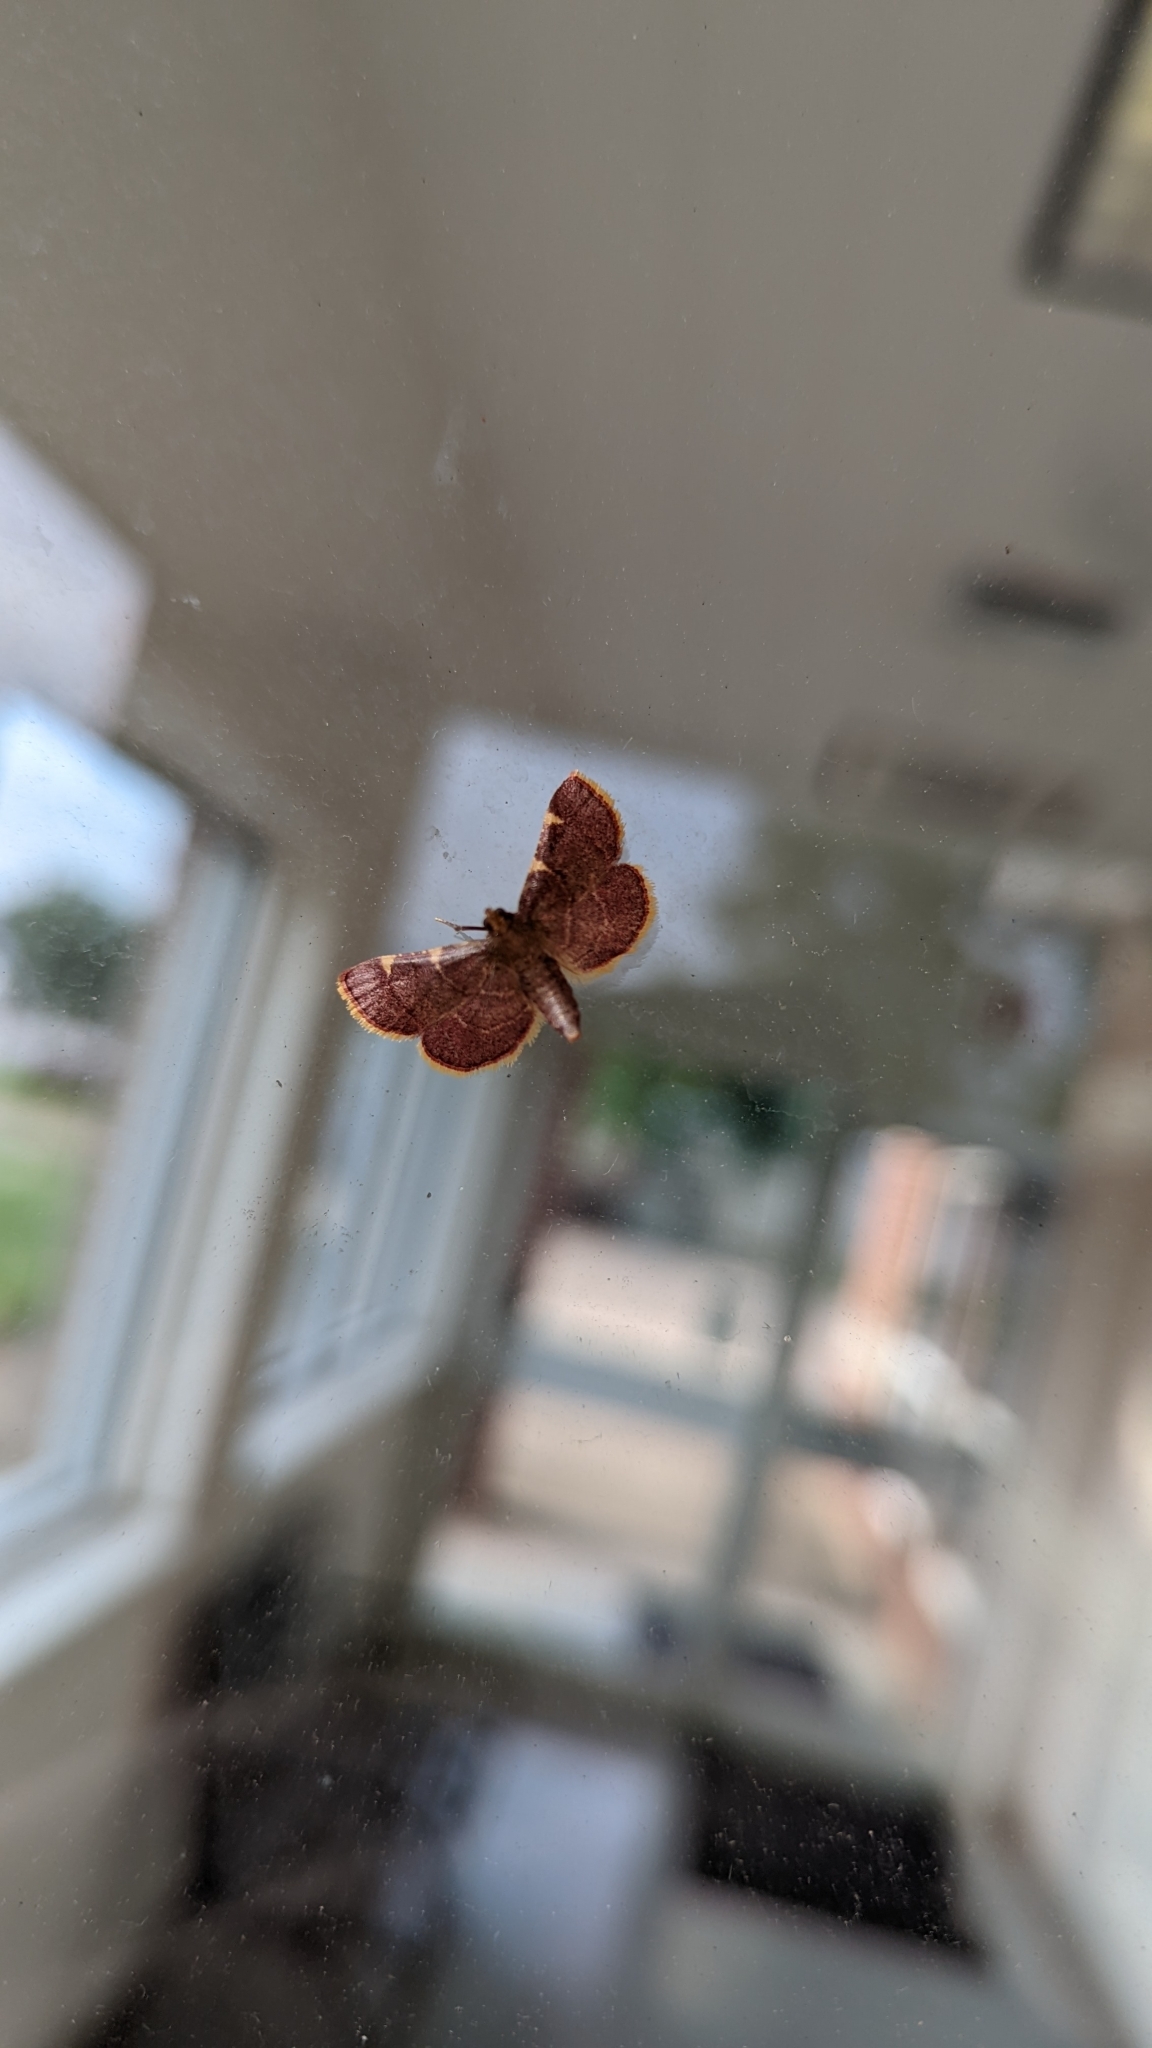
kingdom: Animalia
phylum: Arthropoda
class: Insecta
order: Lepidoptera
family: Pyralidae
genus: Hypsopygia
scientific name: Hypsopygia olinalis
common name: Yellow-fringed dolichomia moth
